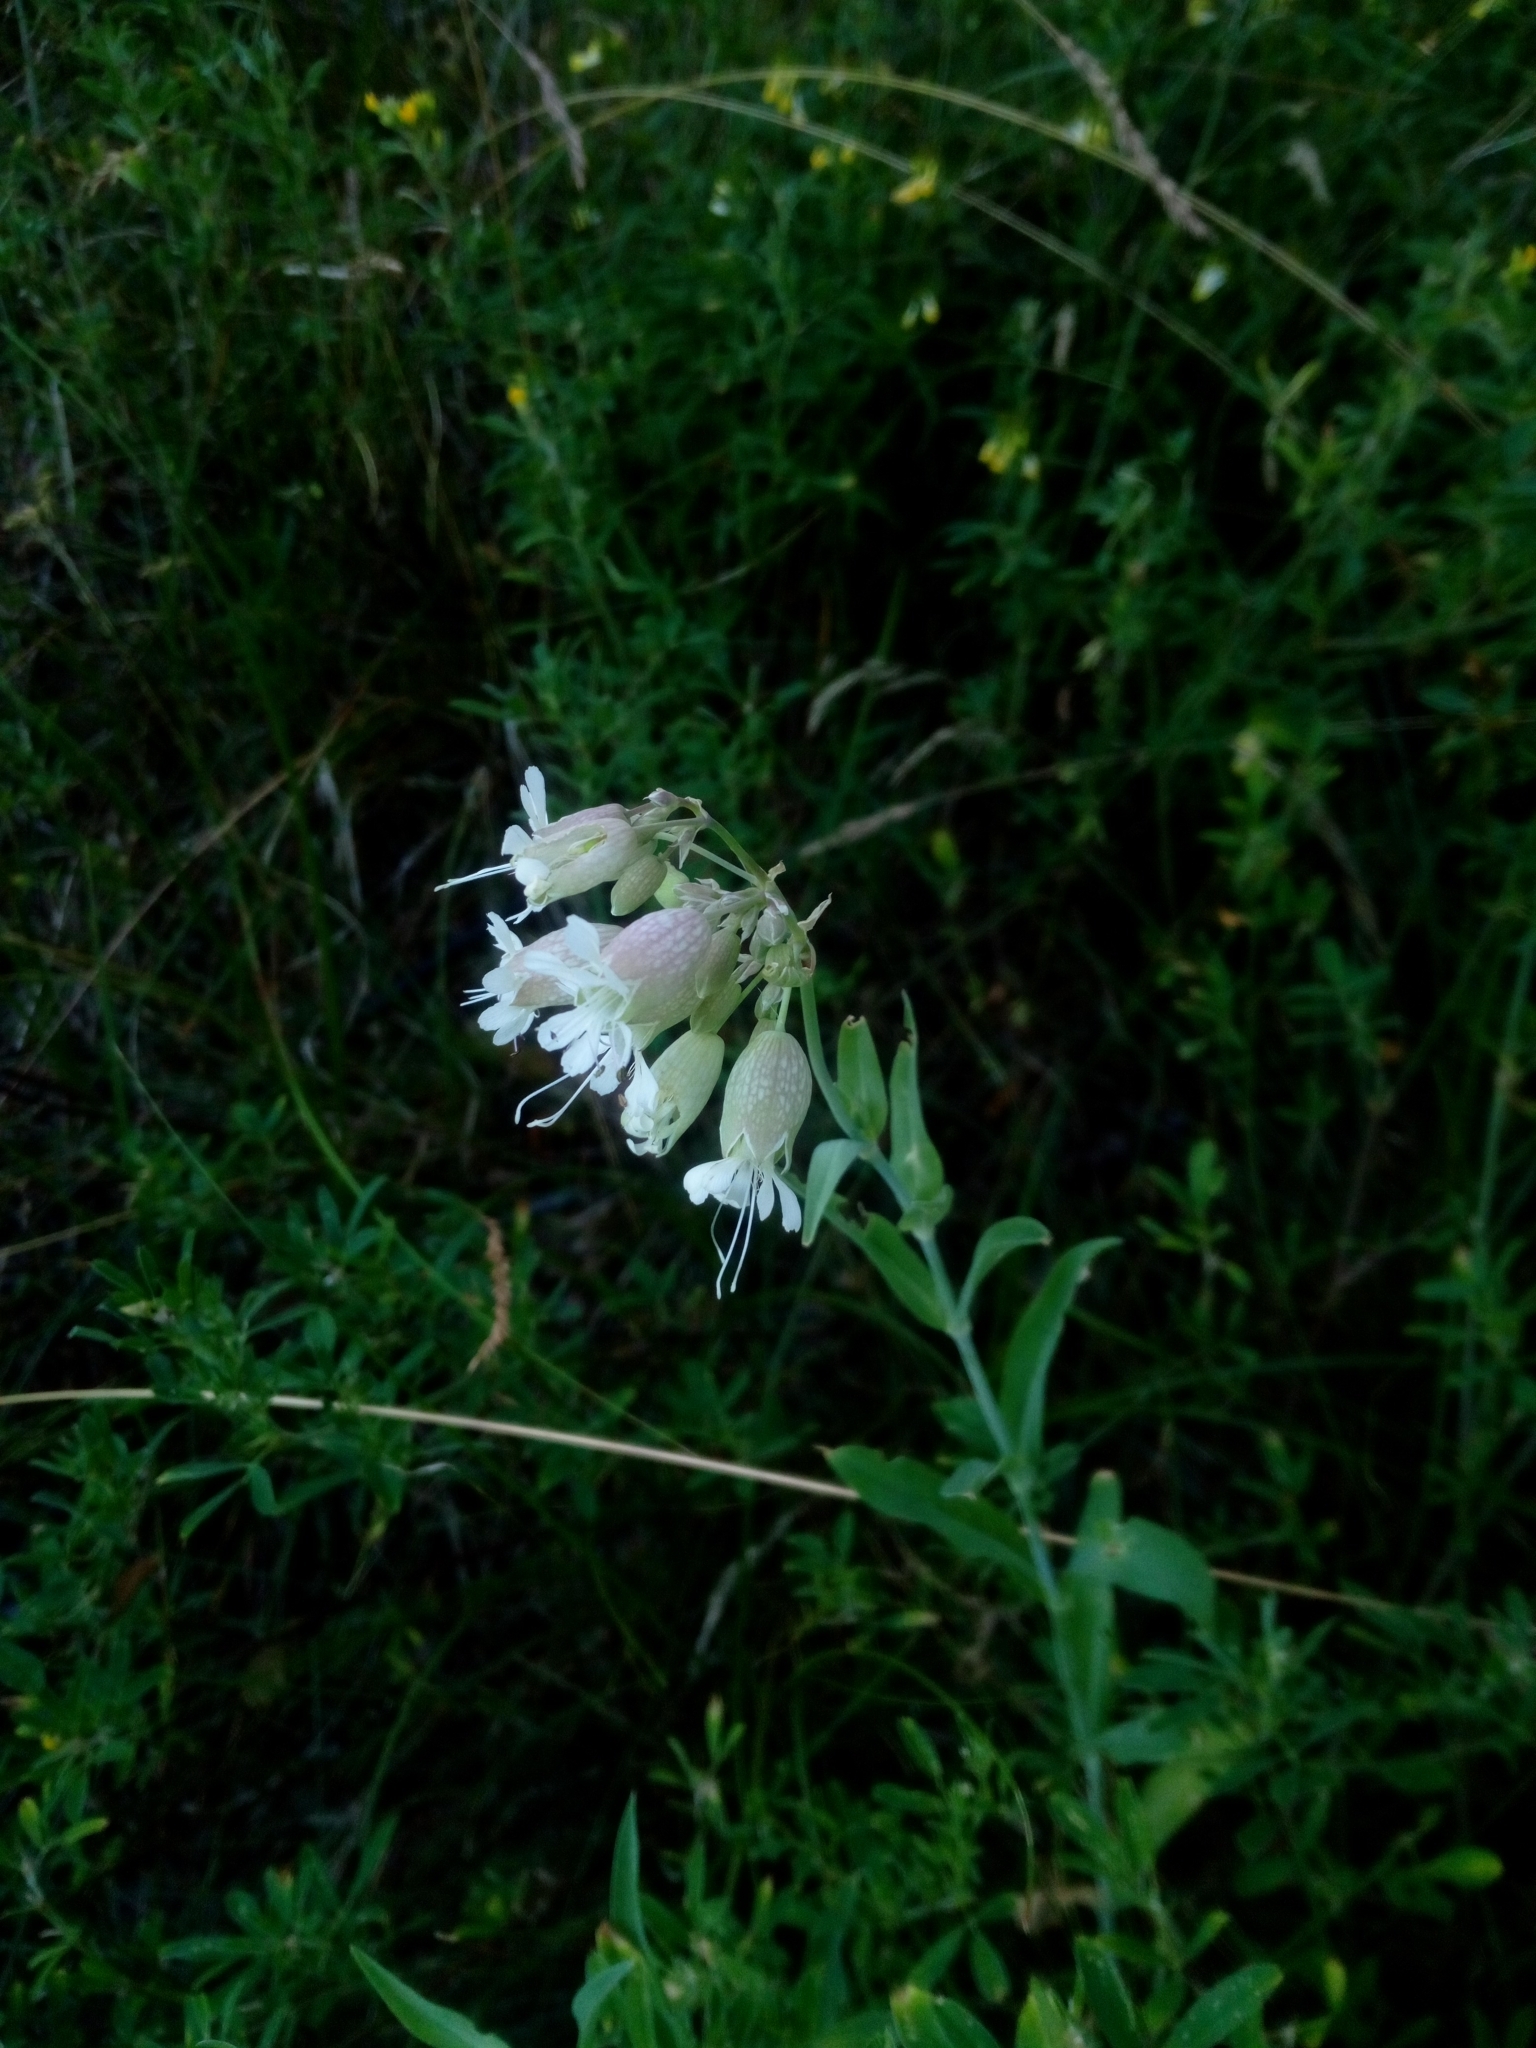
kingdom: Plantae
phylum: Tracheophyta
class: Magnoliopsida
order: Caryophyllales
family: Caryophyllaceae
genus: Silene
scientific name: Silene vulgaris
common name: Bladder campion
